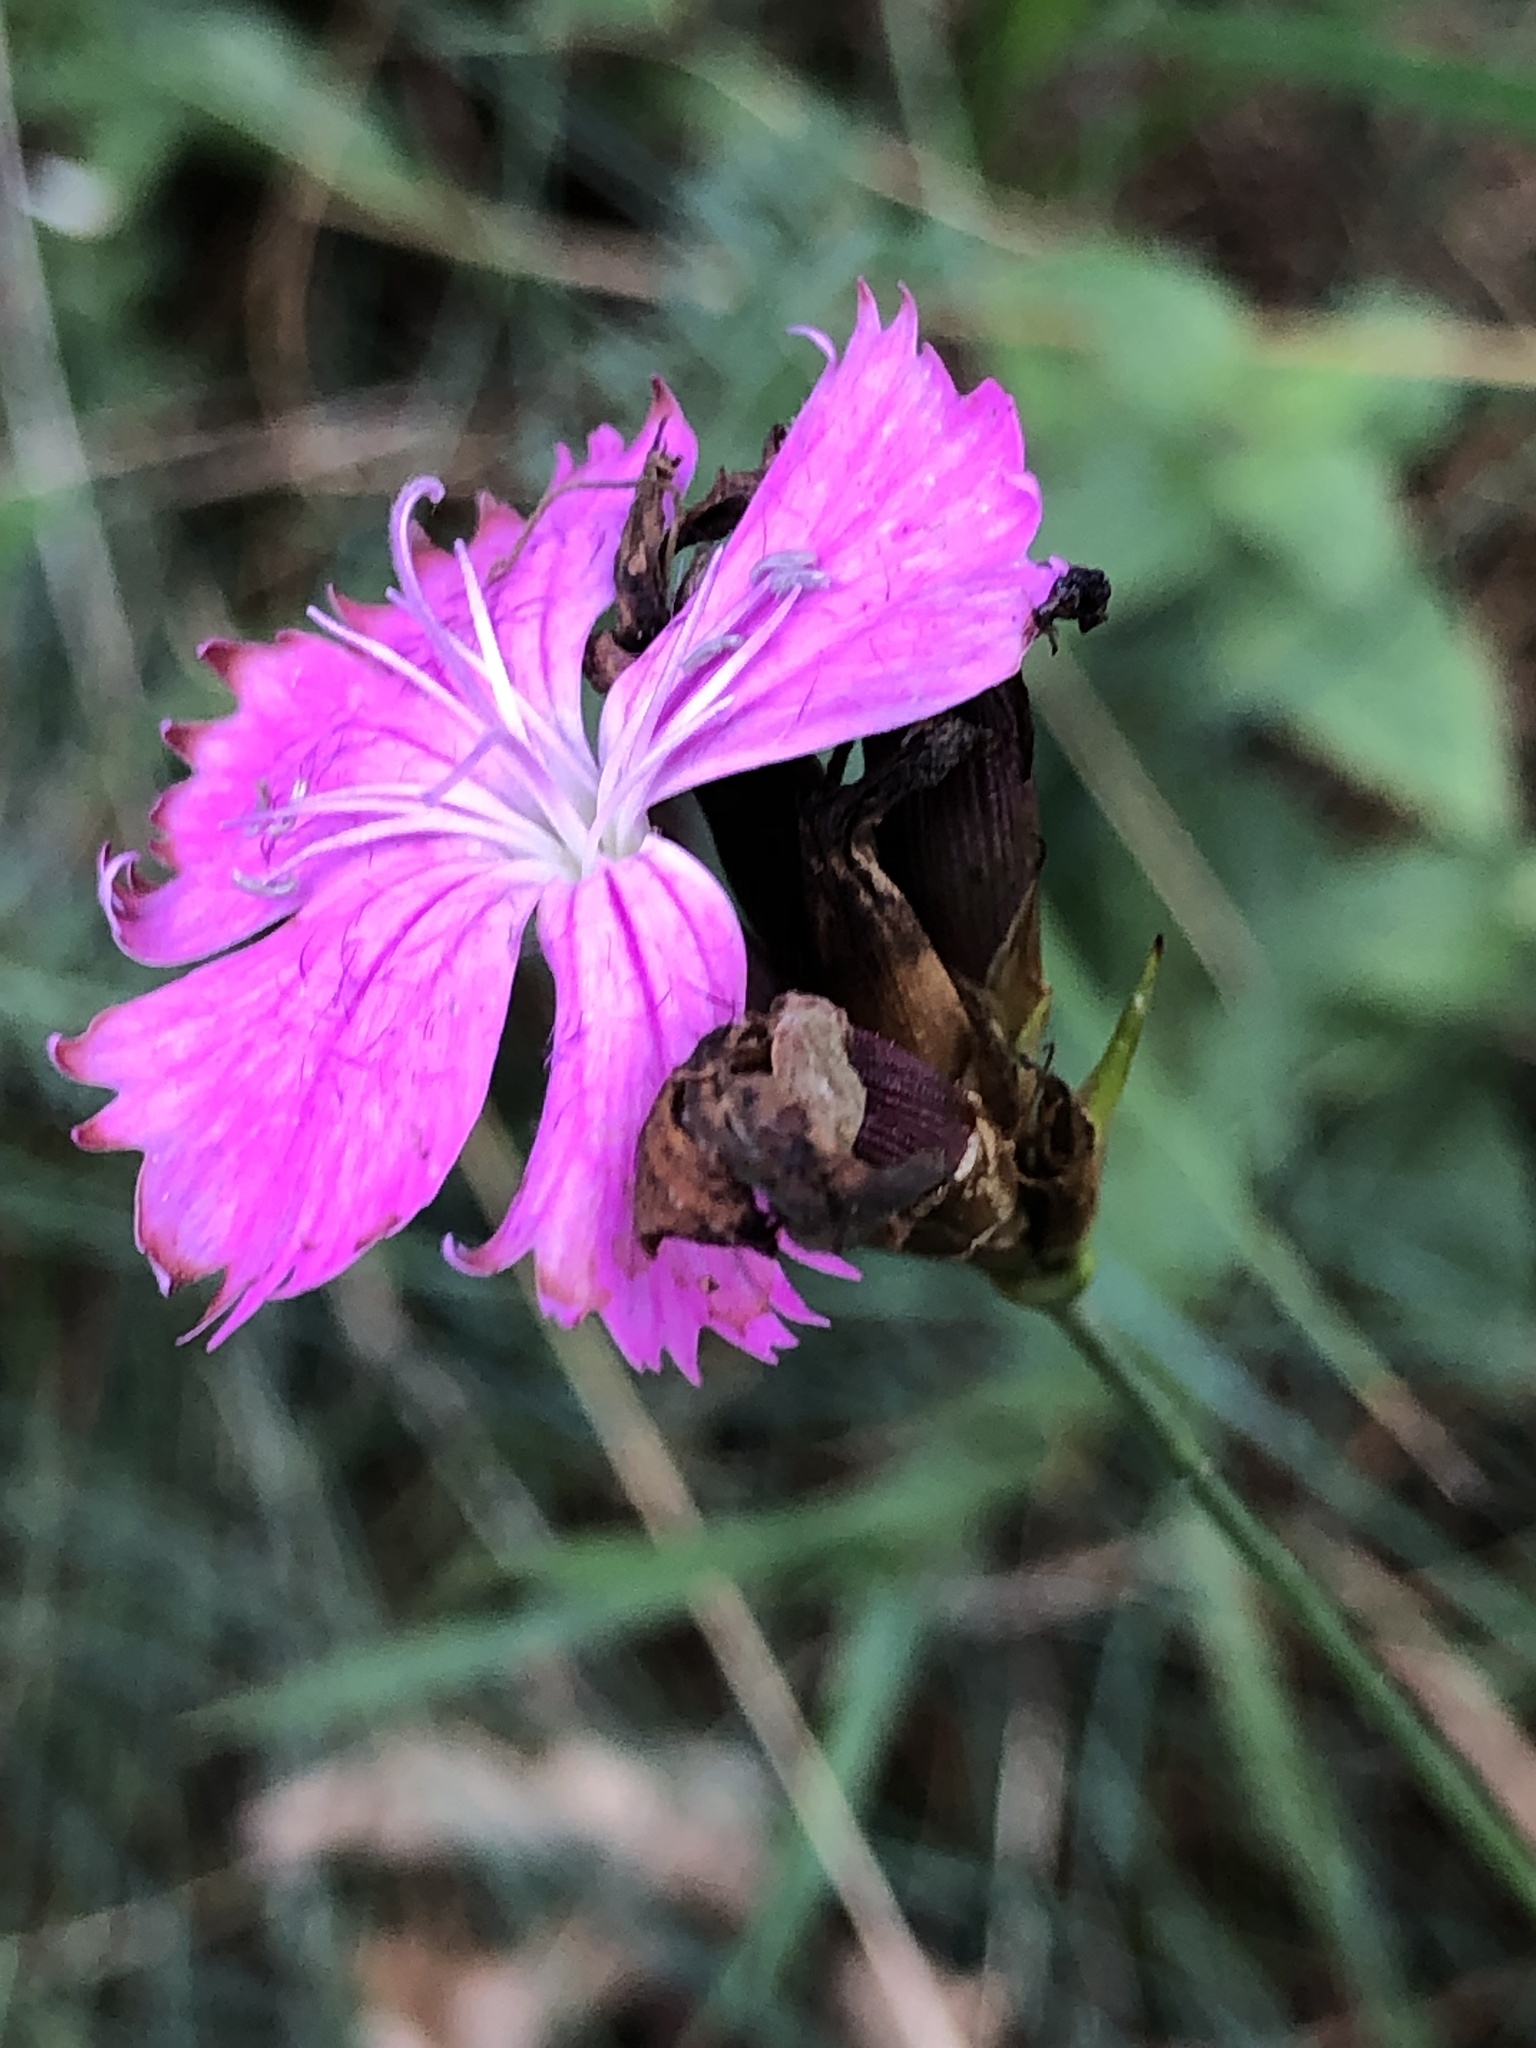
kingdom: Plantae
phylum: Tracheophyta
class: Magnoliopsida
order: Caryophyllales
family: Caryophyllaceae
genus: Dianthus
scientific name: Dianthus carthusianorum
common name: Carthusian pink
